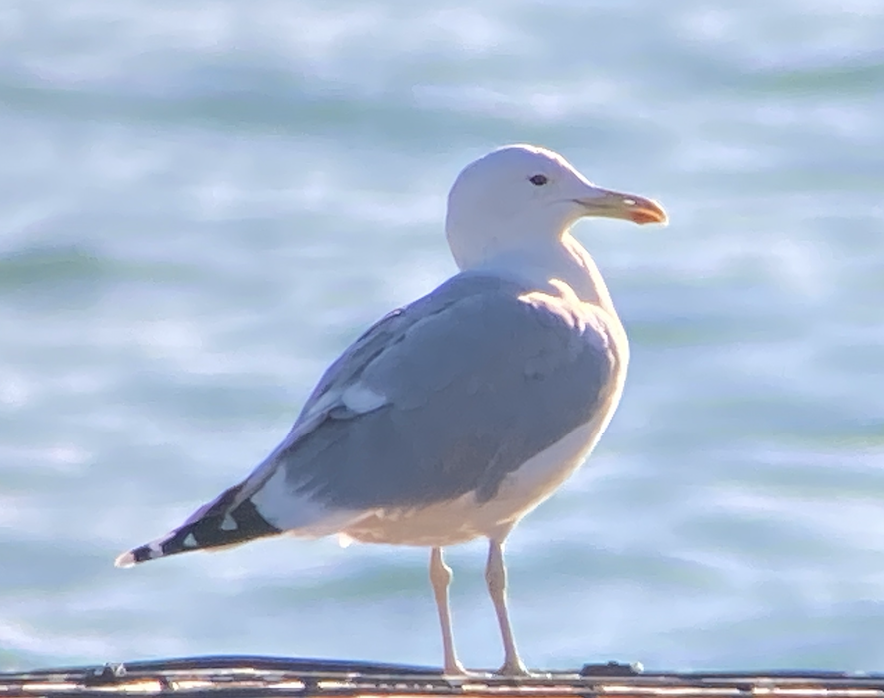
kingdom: Animalia
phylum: Chordata
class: Aves
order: Charadriiformes
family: Laridae
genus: Larus
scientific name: Larus cachinnans
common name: Caspian gull
